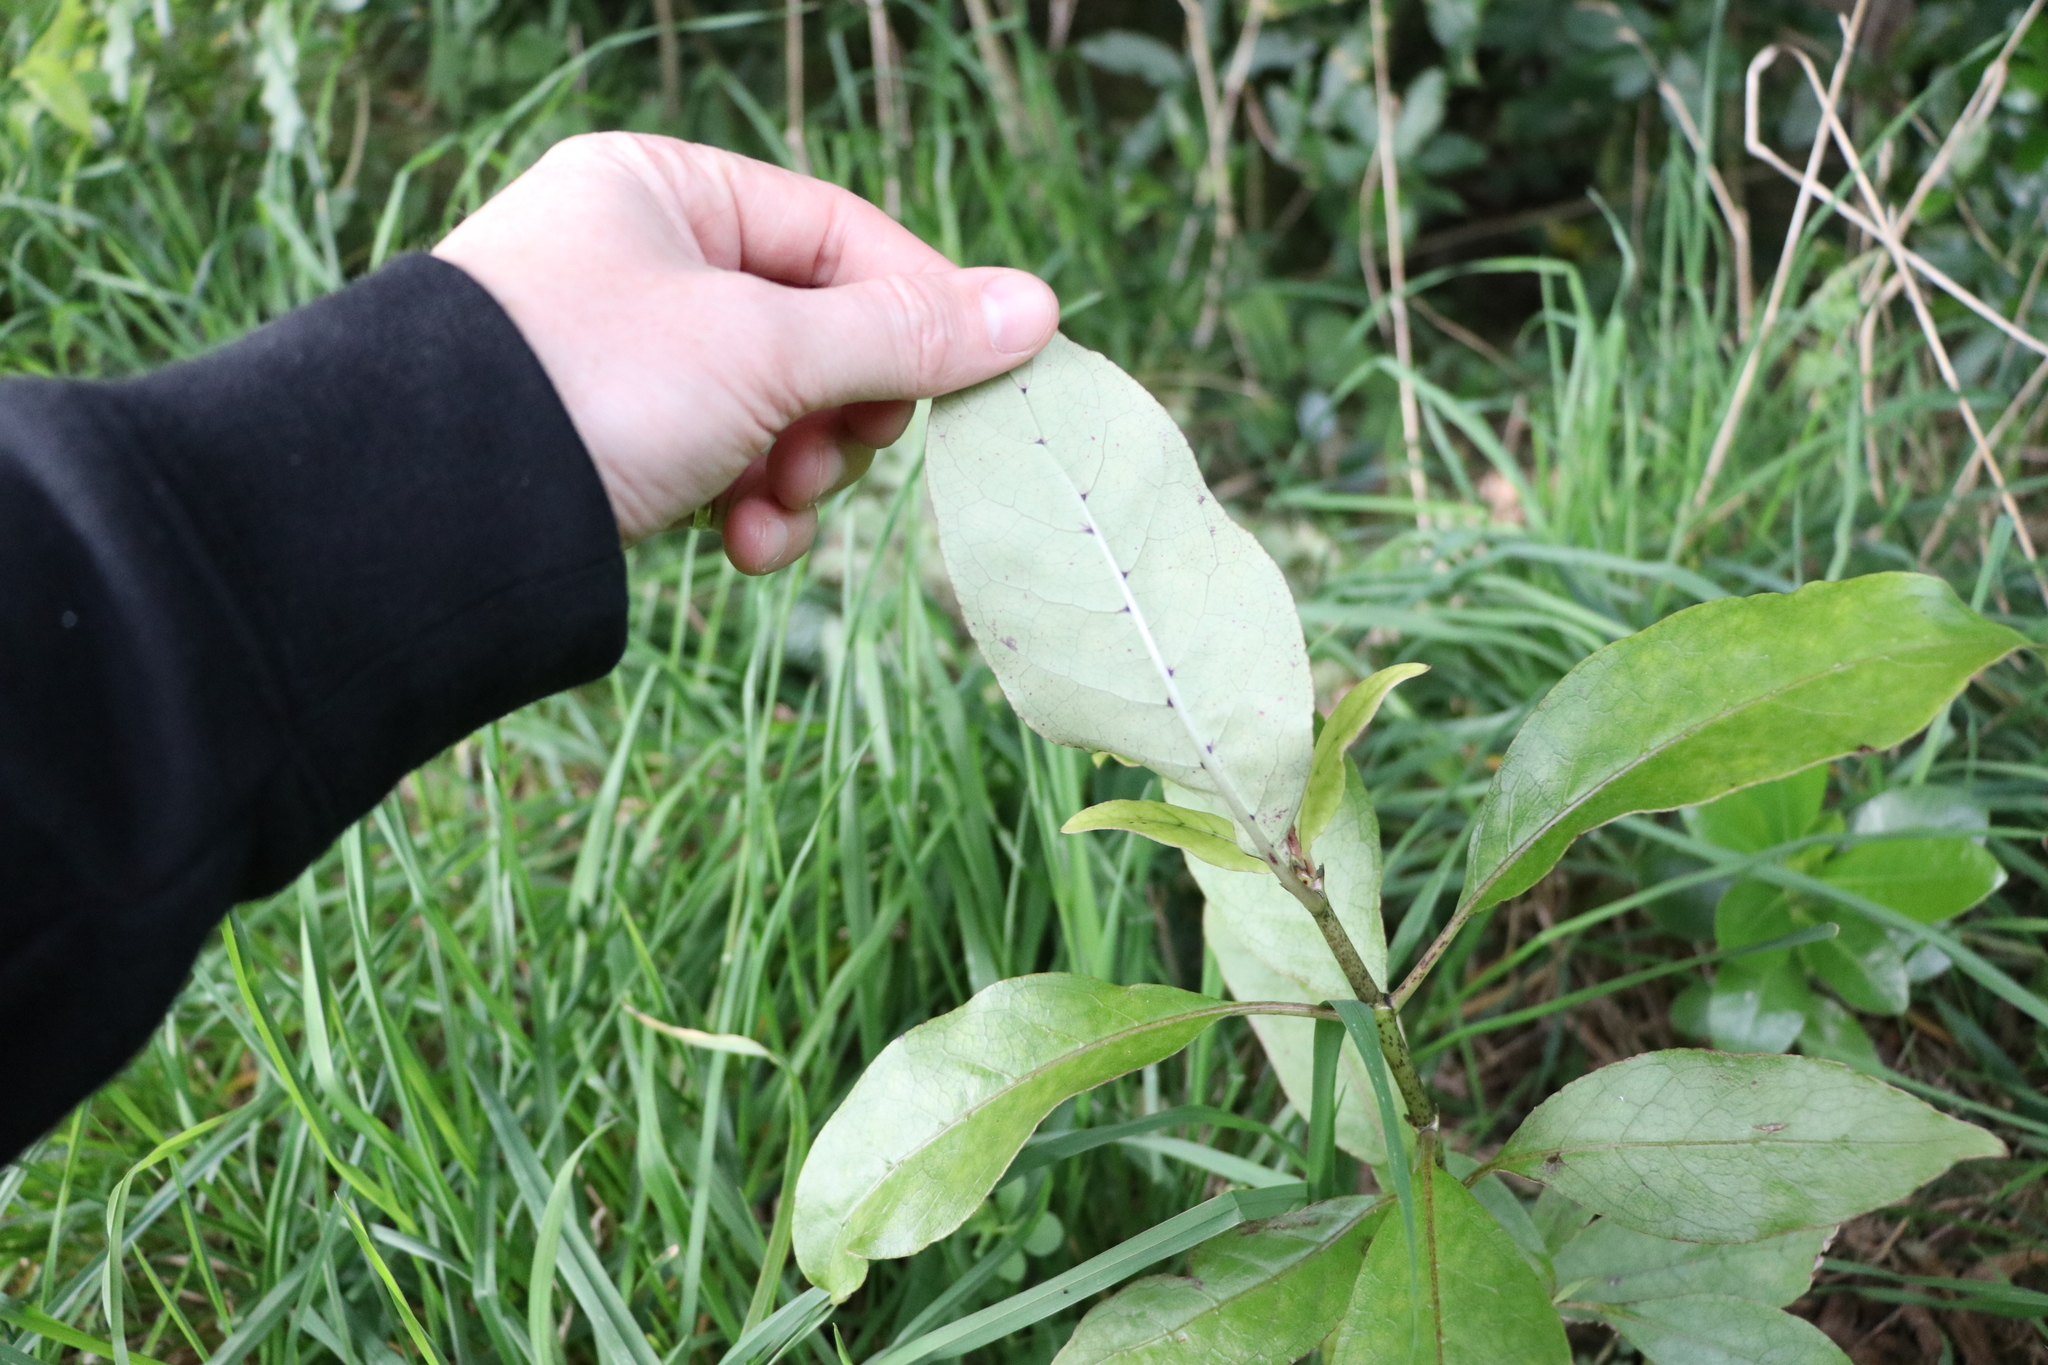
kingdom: Plantae
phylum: Tracheophyta
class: Magnoliopsida
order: Gentianales
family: Rubiaceae
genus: Coprosma
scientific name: Coprosma autumnalis
